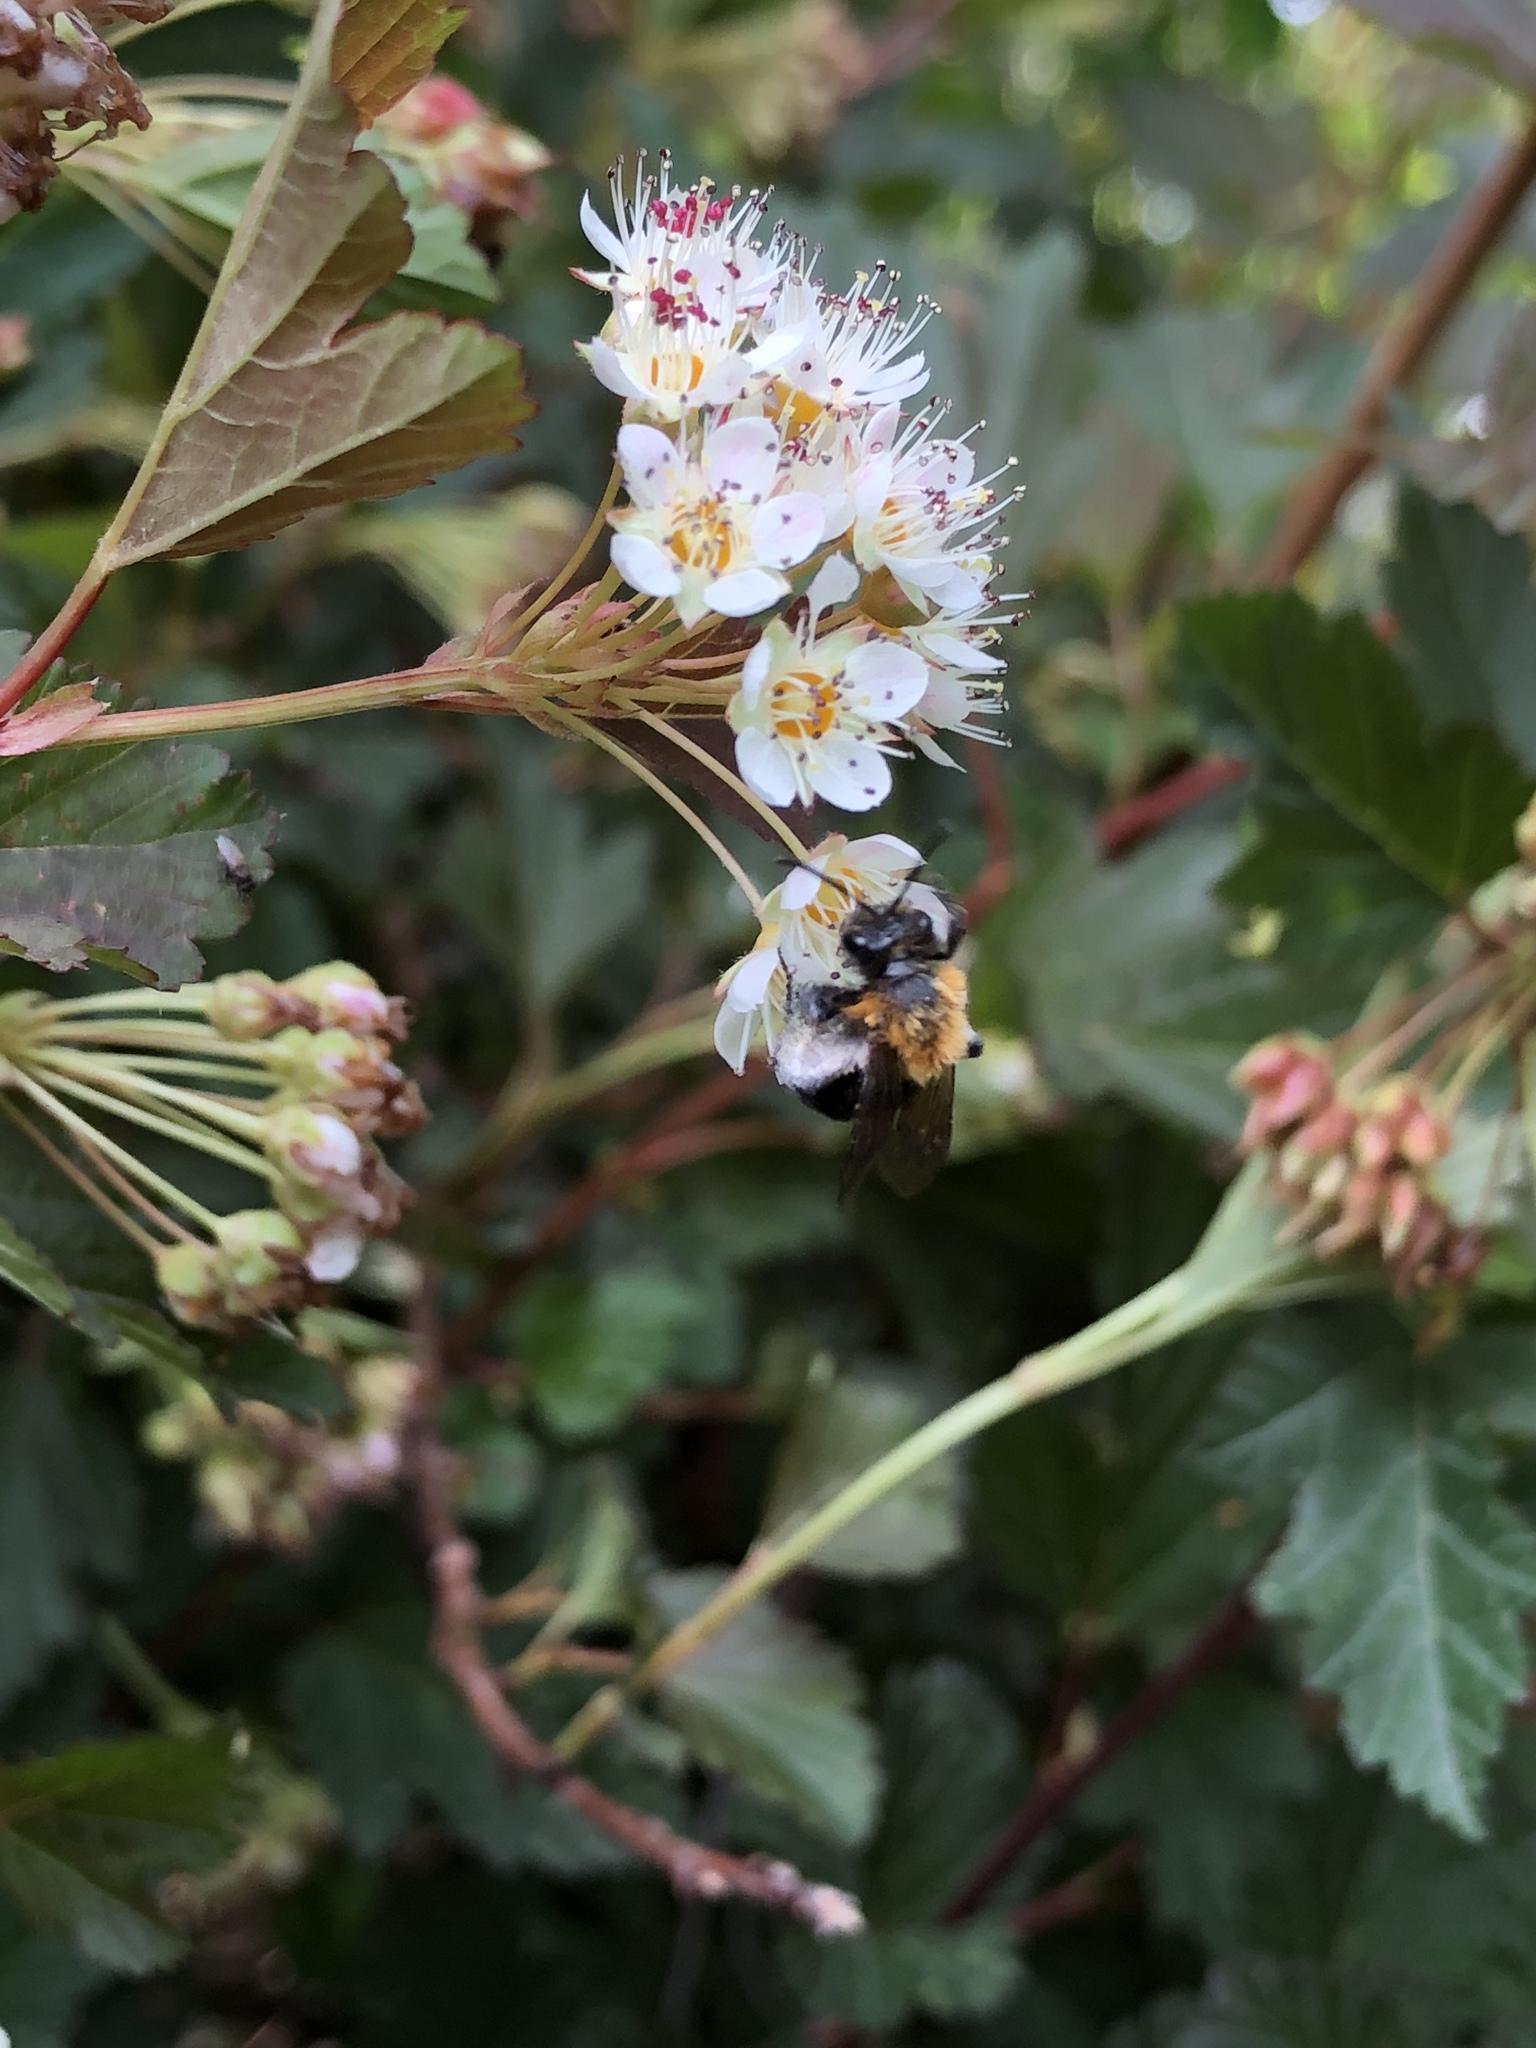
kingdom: Animalia
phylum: Arthropoda
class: Insecta
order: Hymenoptera
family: Andrenidae
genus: Andrena
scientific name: Andrena milwaukeensis
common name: Milwaukee mining bee
